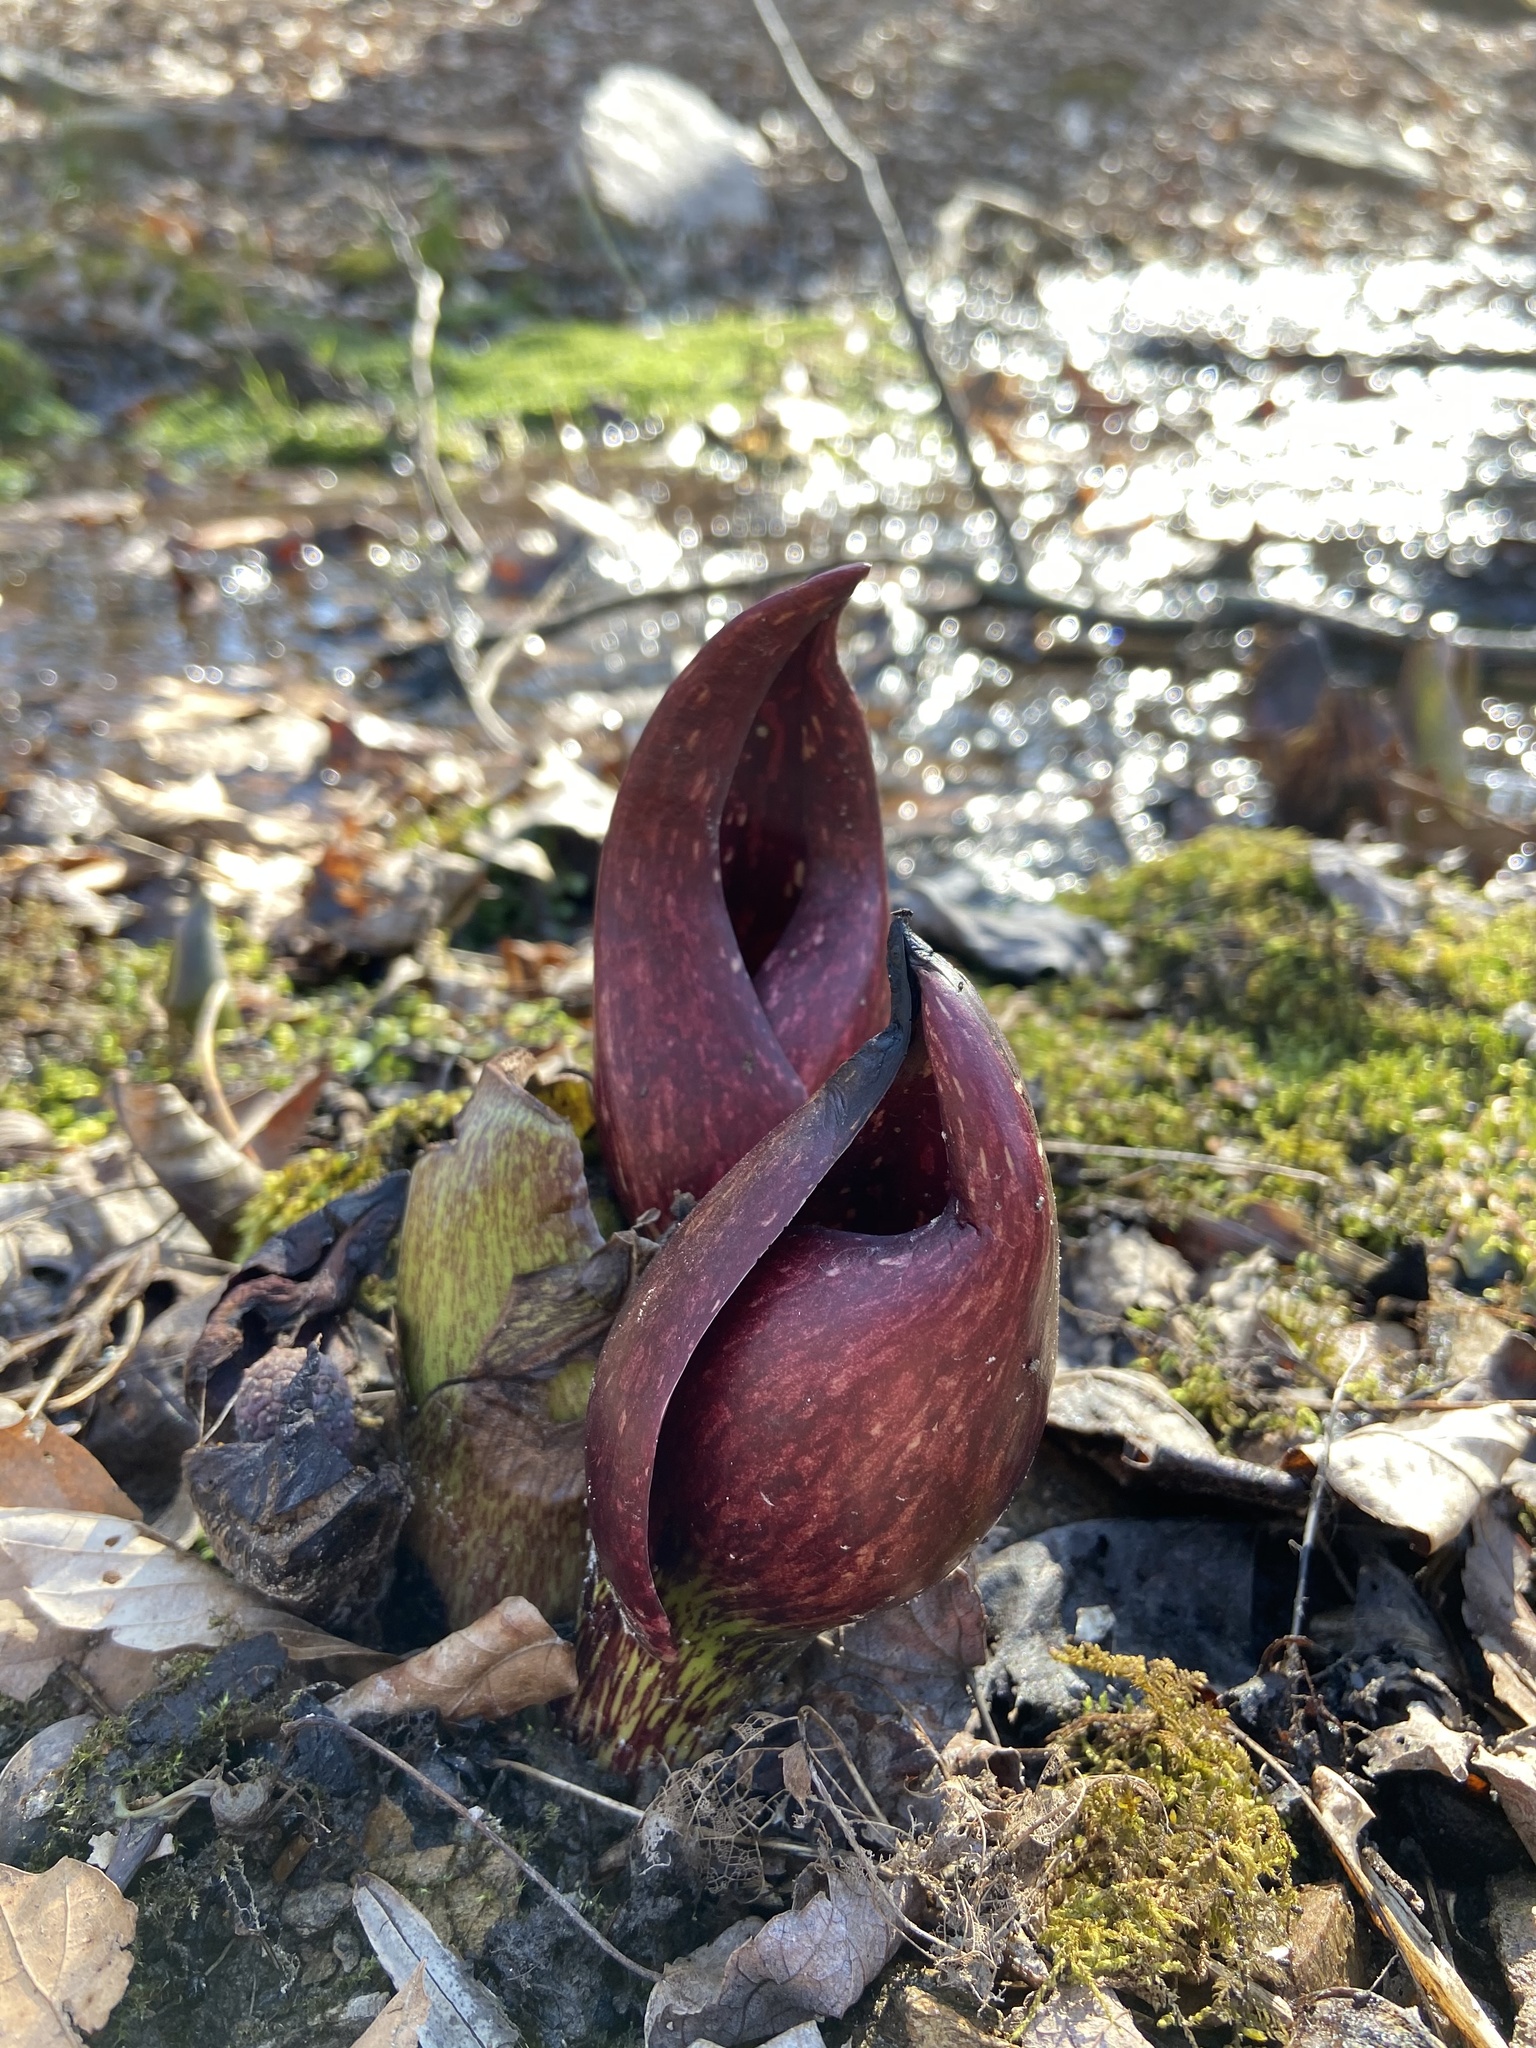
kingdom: Plantae
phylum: Tracheophyta
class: Liliopsida
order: Alismatales
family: Araceae
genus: Symplocarpus
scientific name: Symplocarpus foetidus
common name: Eastern skunk cabbage
